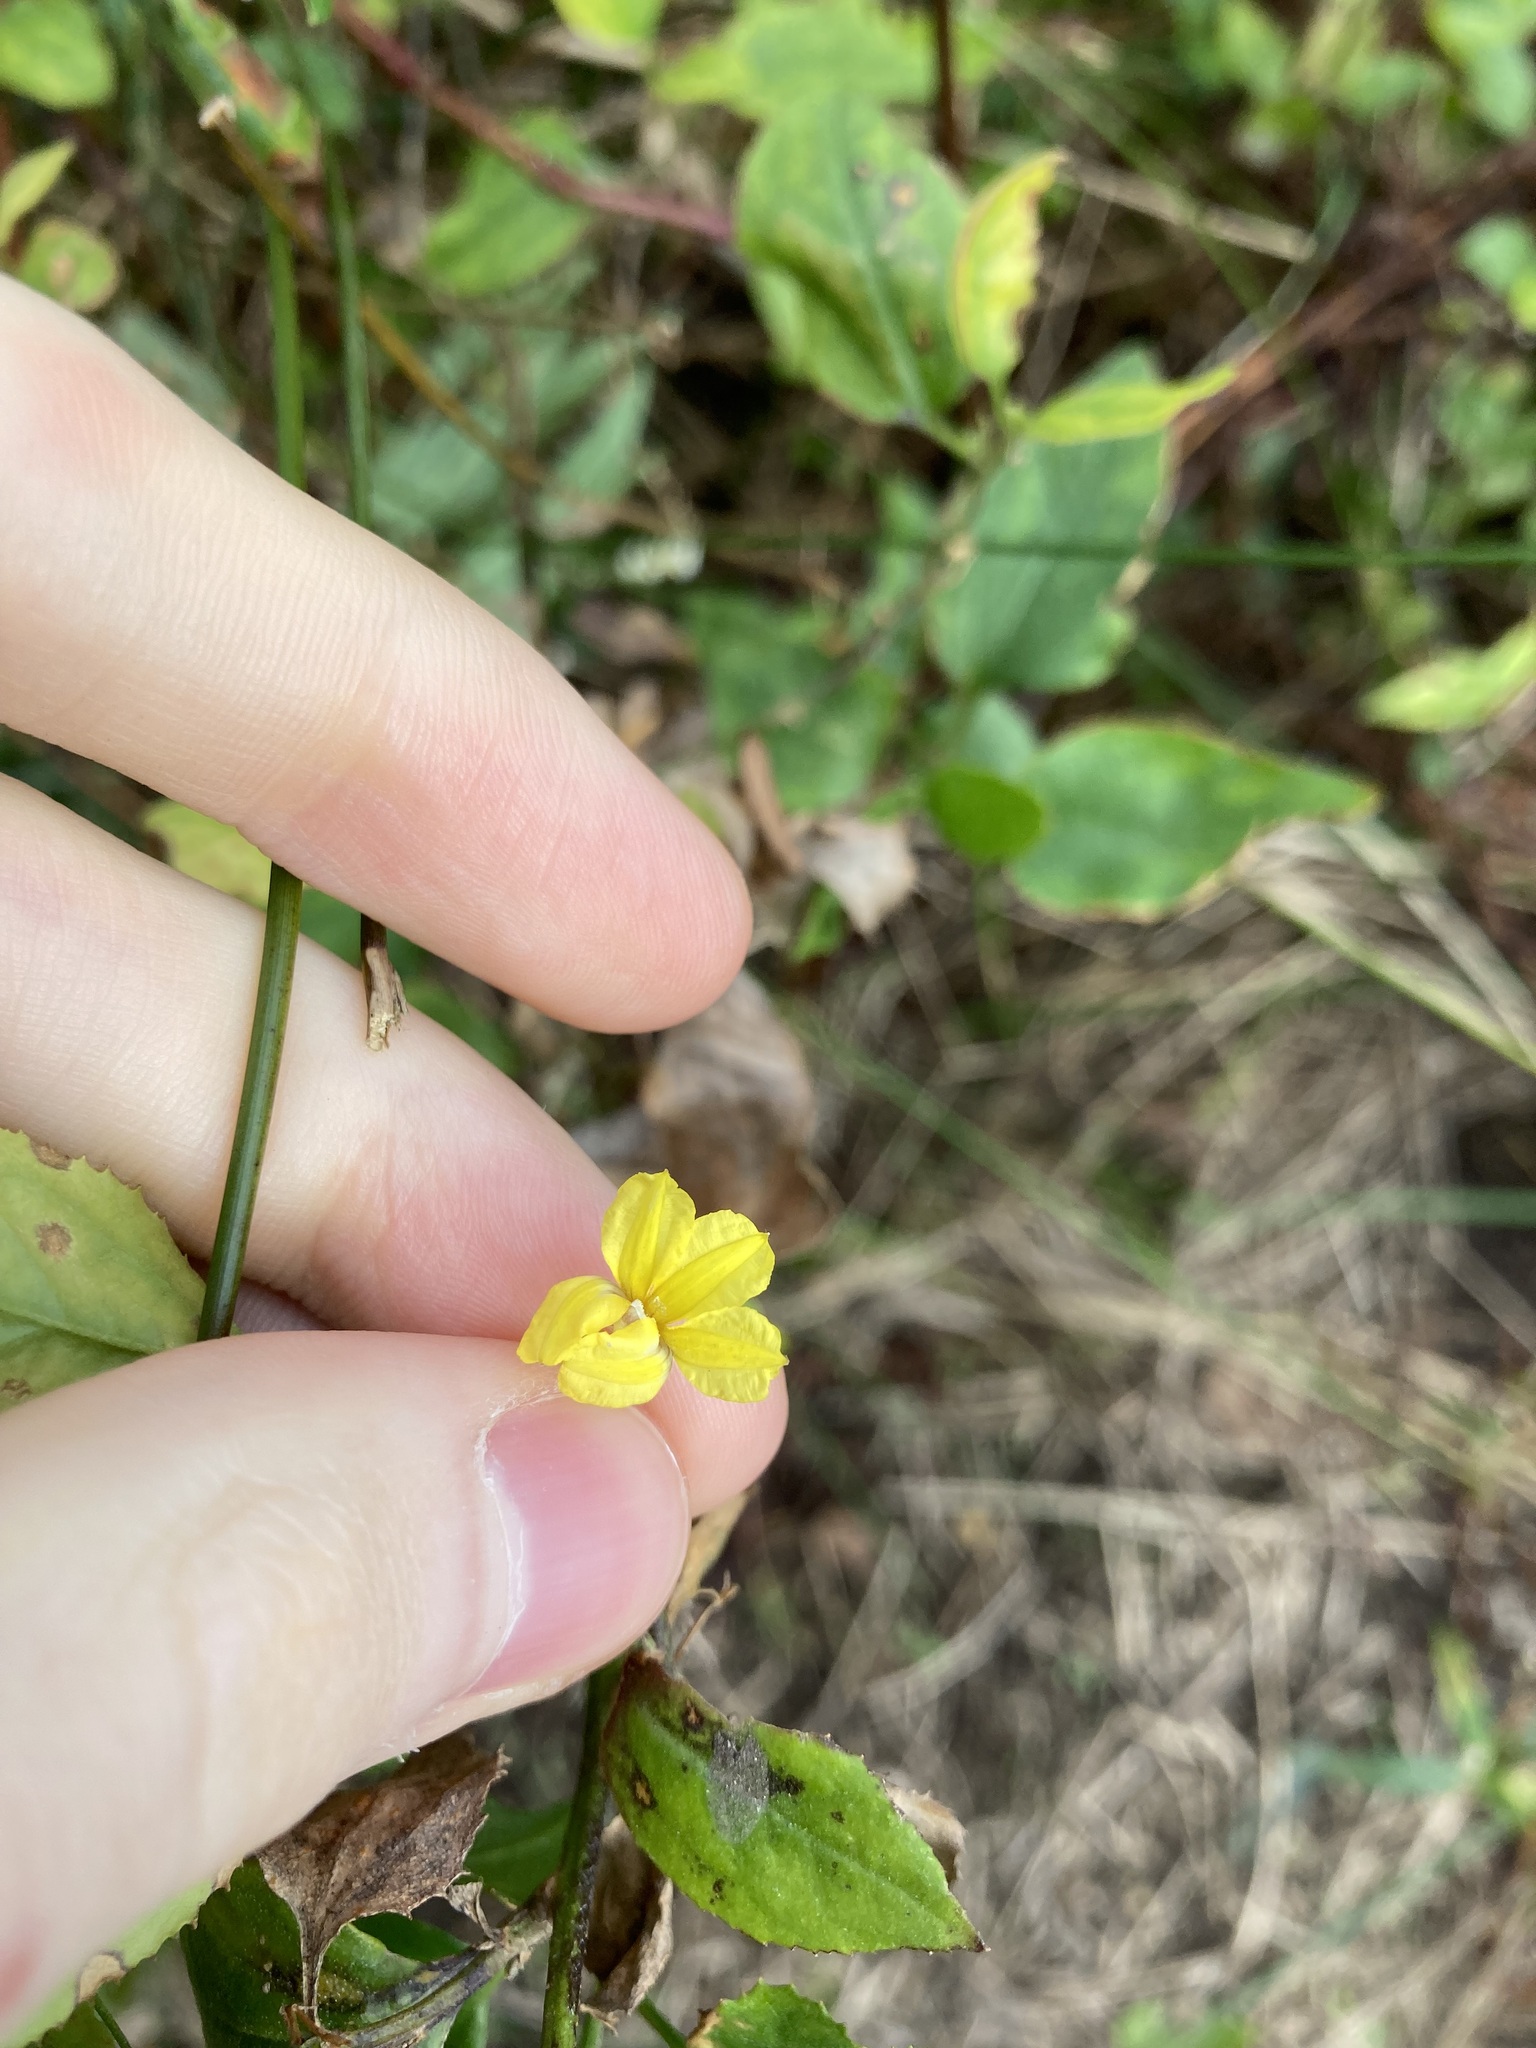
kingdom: Plantae
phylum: Tracheophyta
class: Magnoliopsida
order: Asterales
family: Goodeniaceae
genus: Goodenia
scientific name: Goodenia ovata
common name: Hop goodenia
